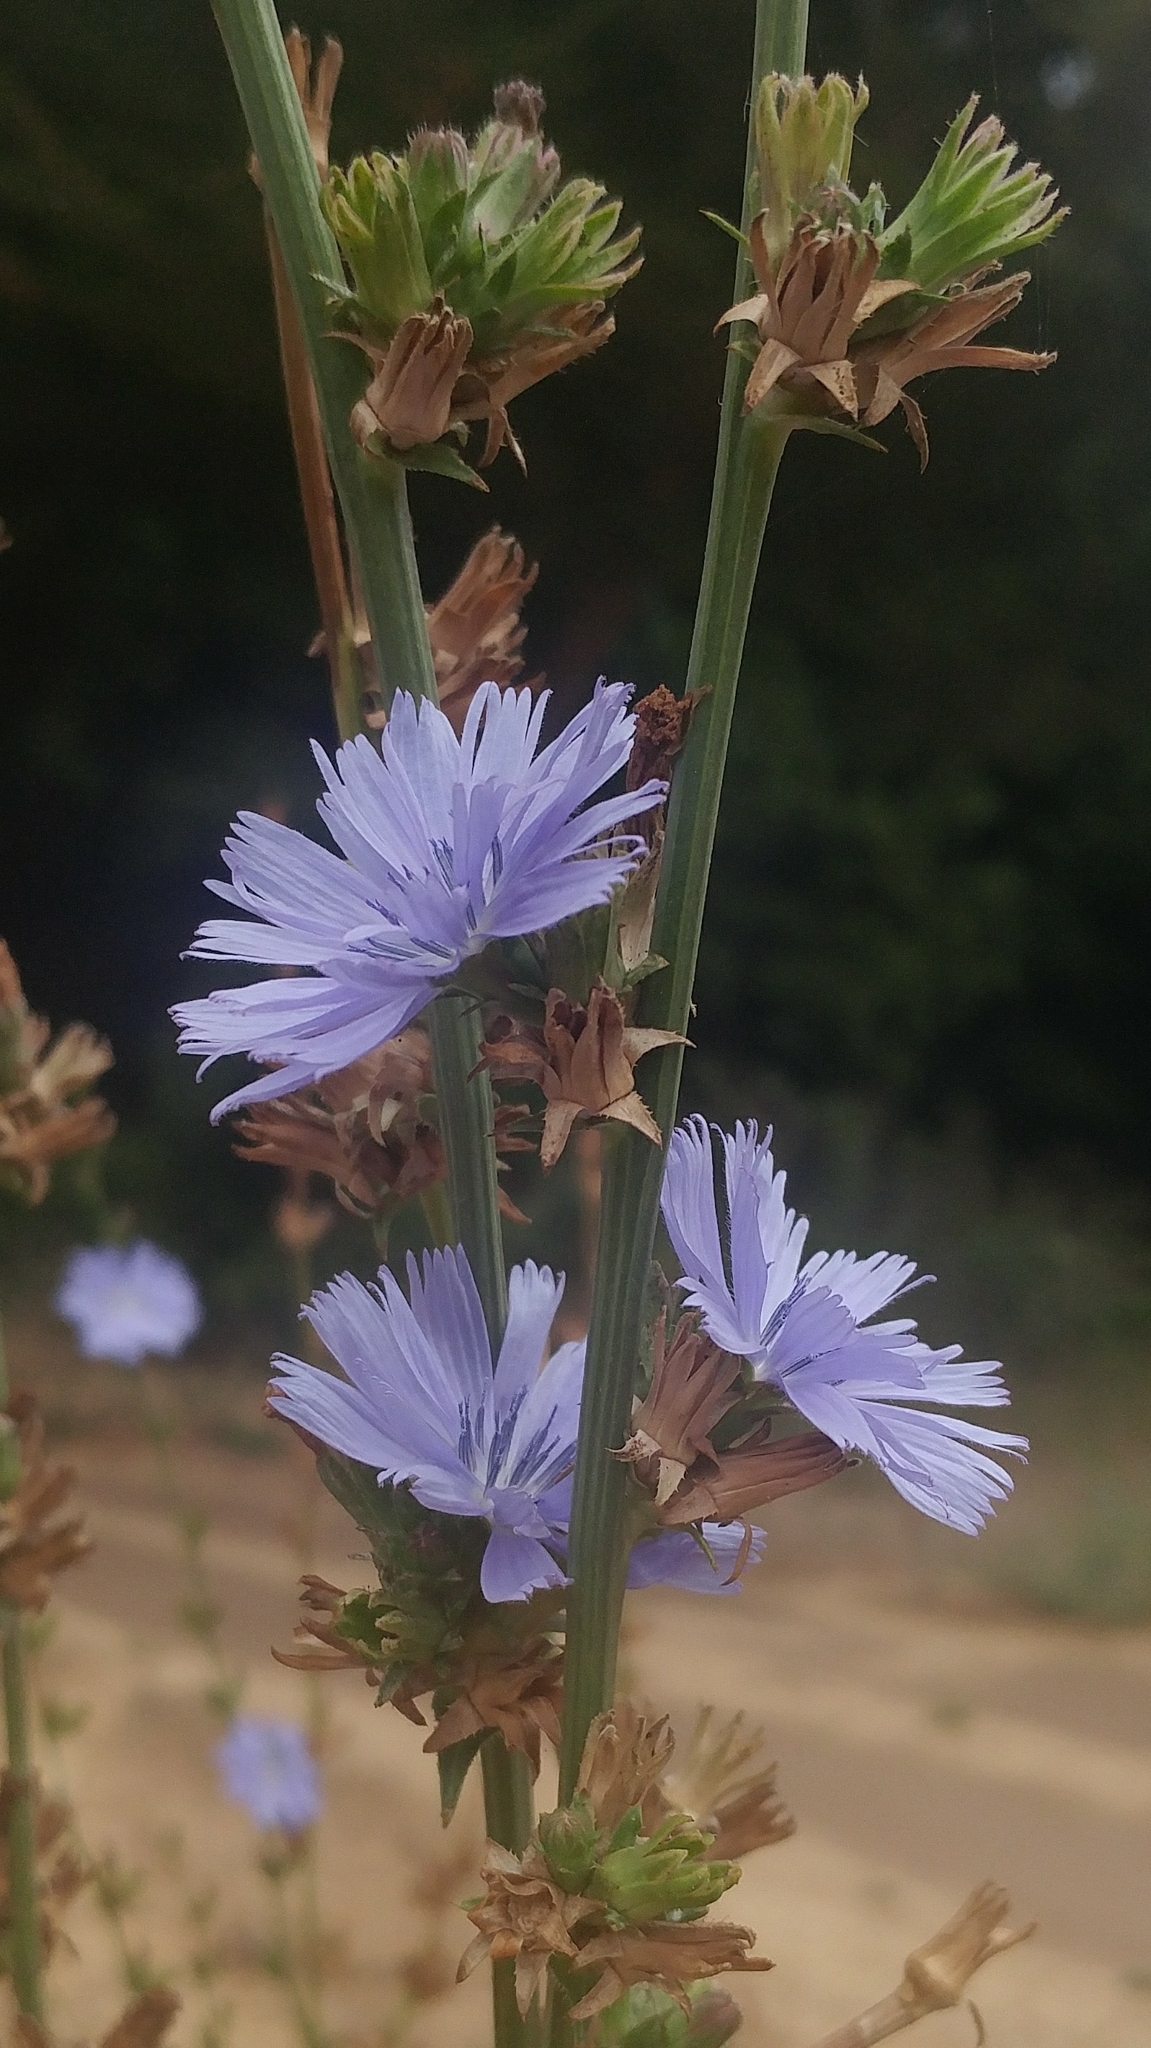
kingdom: Plantae
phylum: Tracheophyta
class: Magnoliopsida
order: Asterales
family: Asteraceae
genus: Cichorium
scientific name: Cichorium intybus
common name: Chicory
